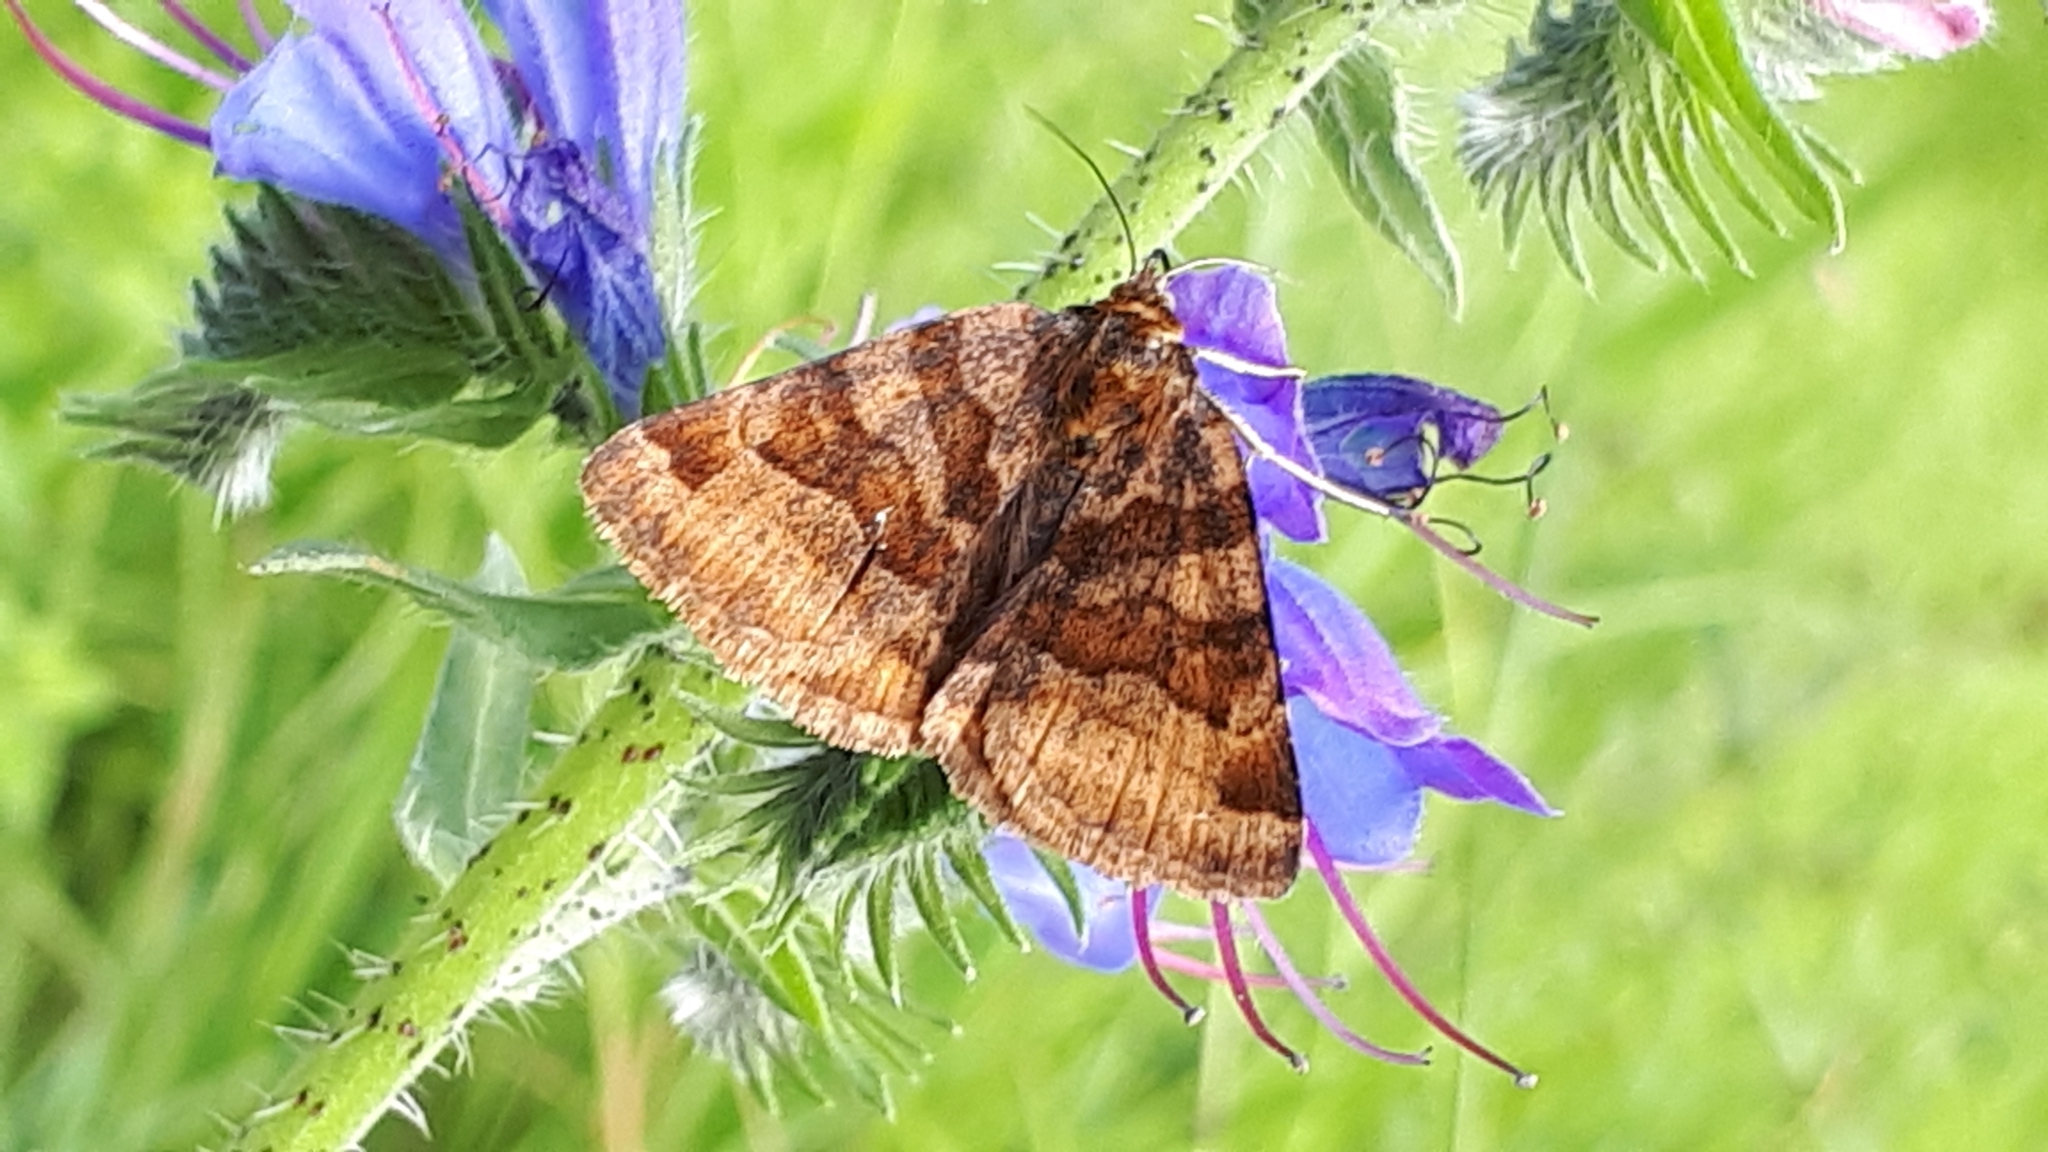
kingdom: Animalia
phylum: Arthropoda
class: Insecta
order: Lepidoptera
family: Erebidae
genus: Euclidia
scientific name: Euclidia glyphica
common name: Burnet companion
